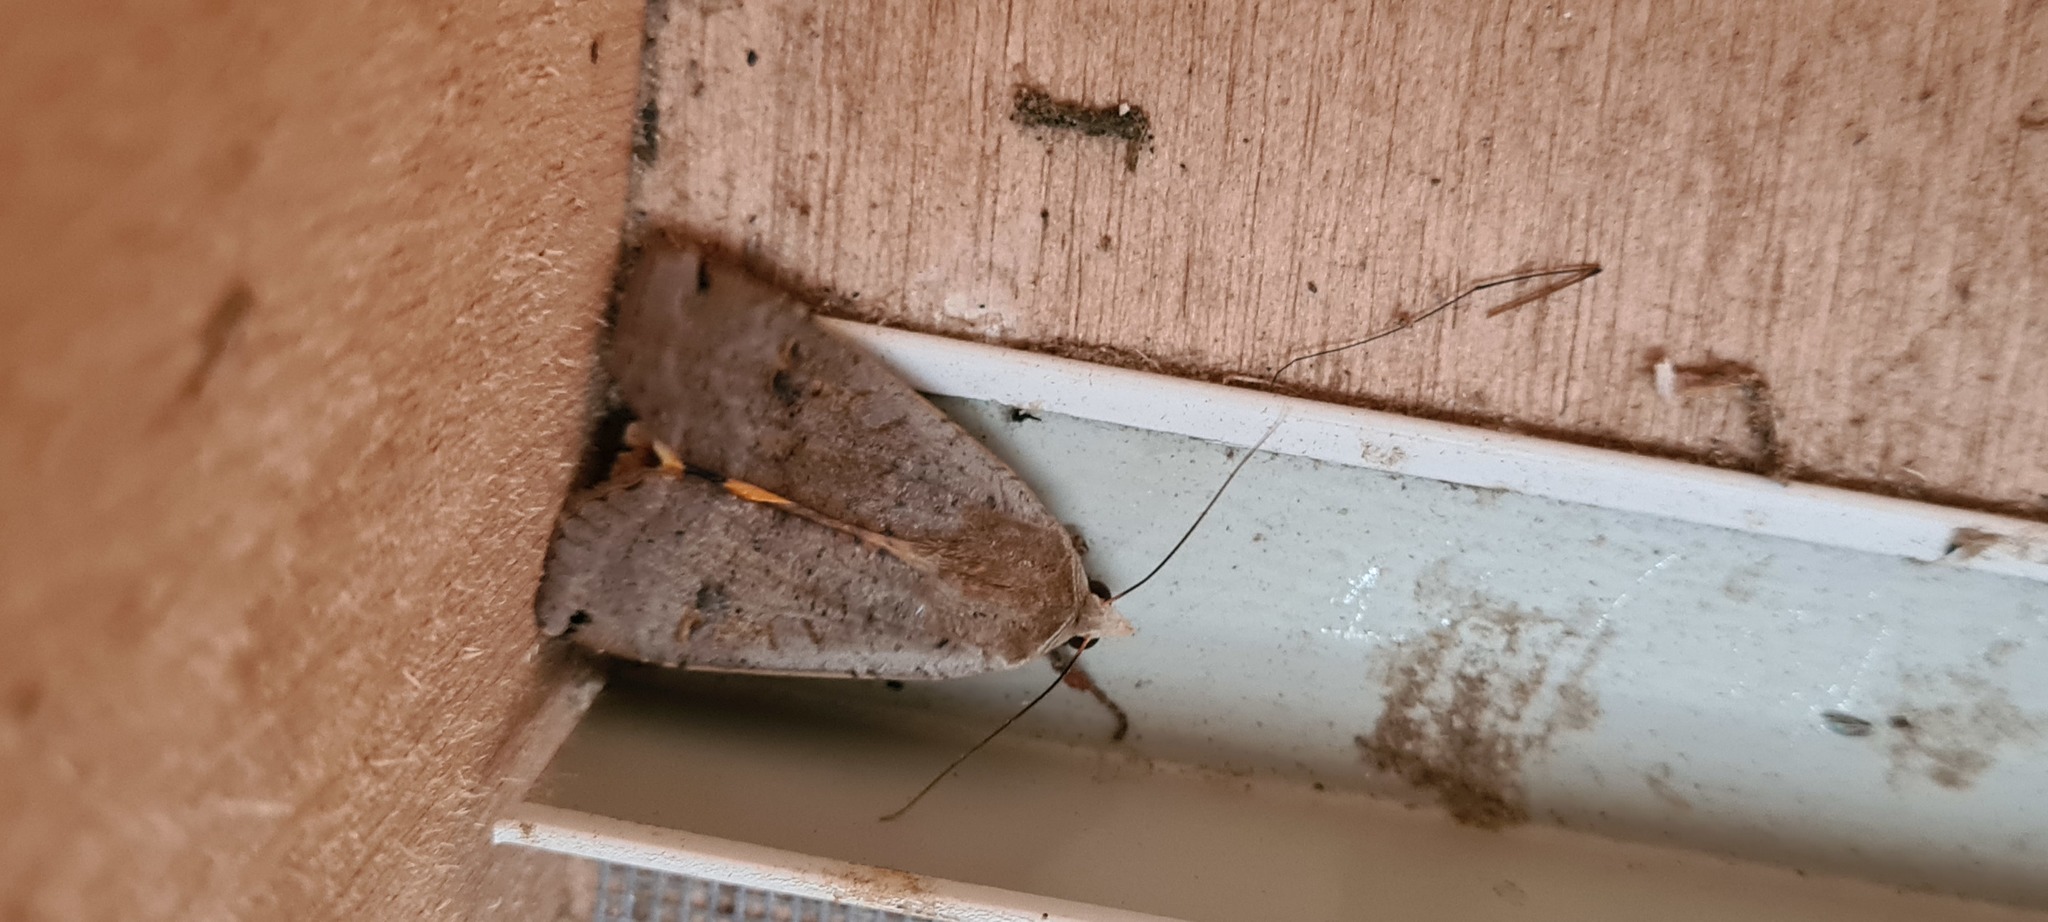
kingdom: Animalia
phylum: Arthropoda
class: Insecta
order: Lepidoptera
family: Noctuidae
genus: Noctua
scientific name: Noctua pronuba
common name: Large yellow underwing
